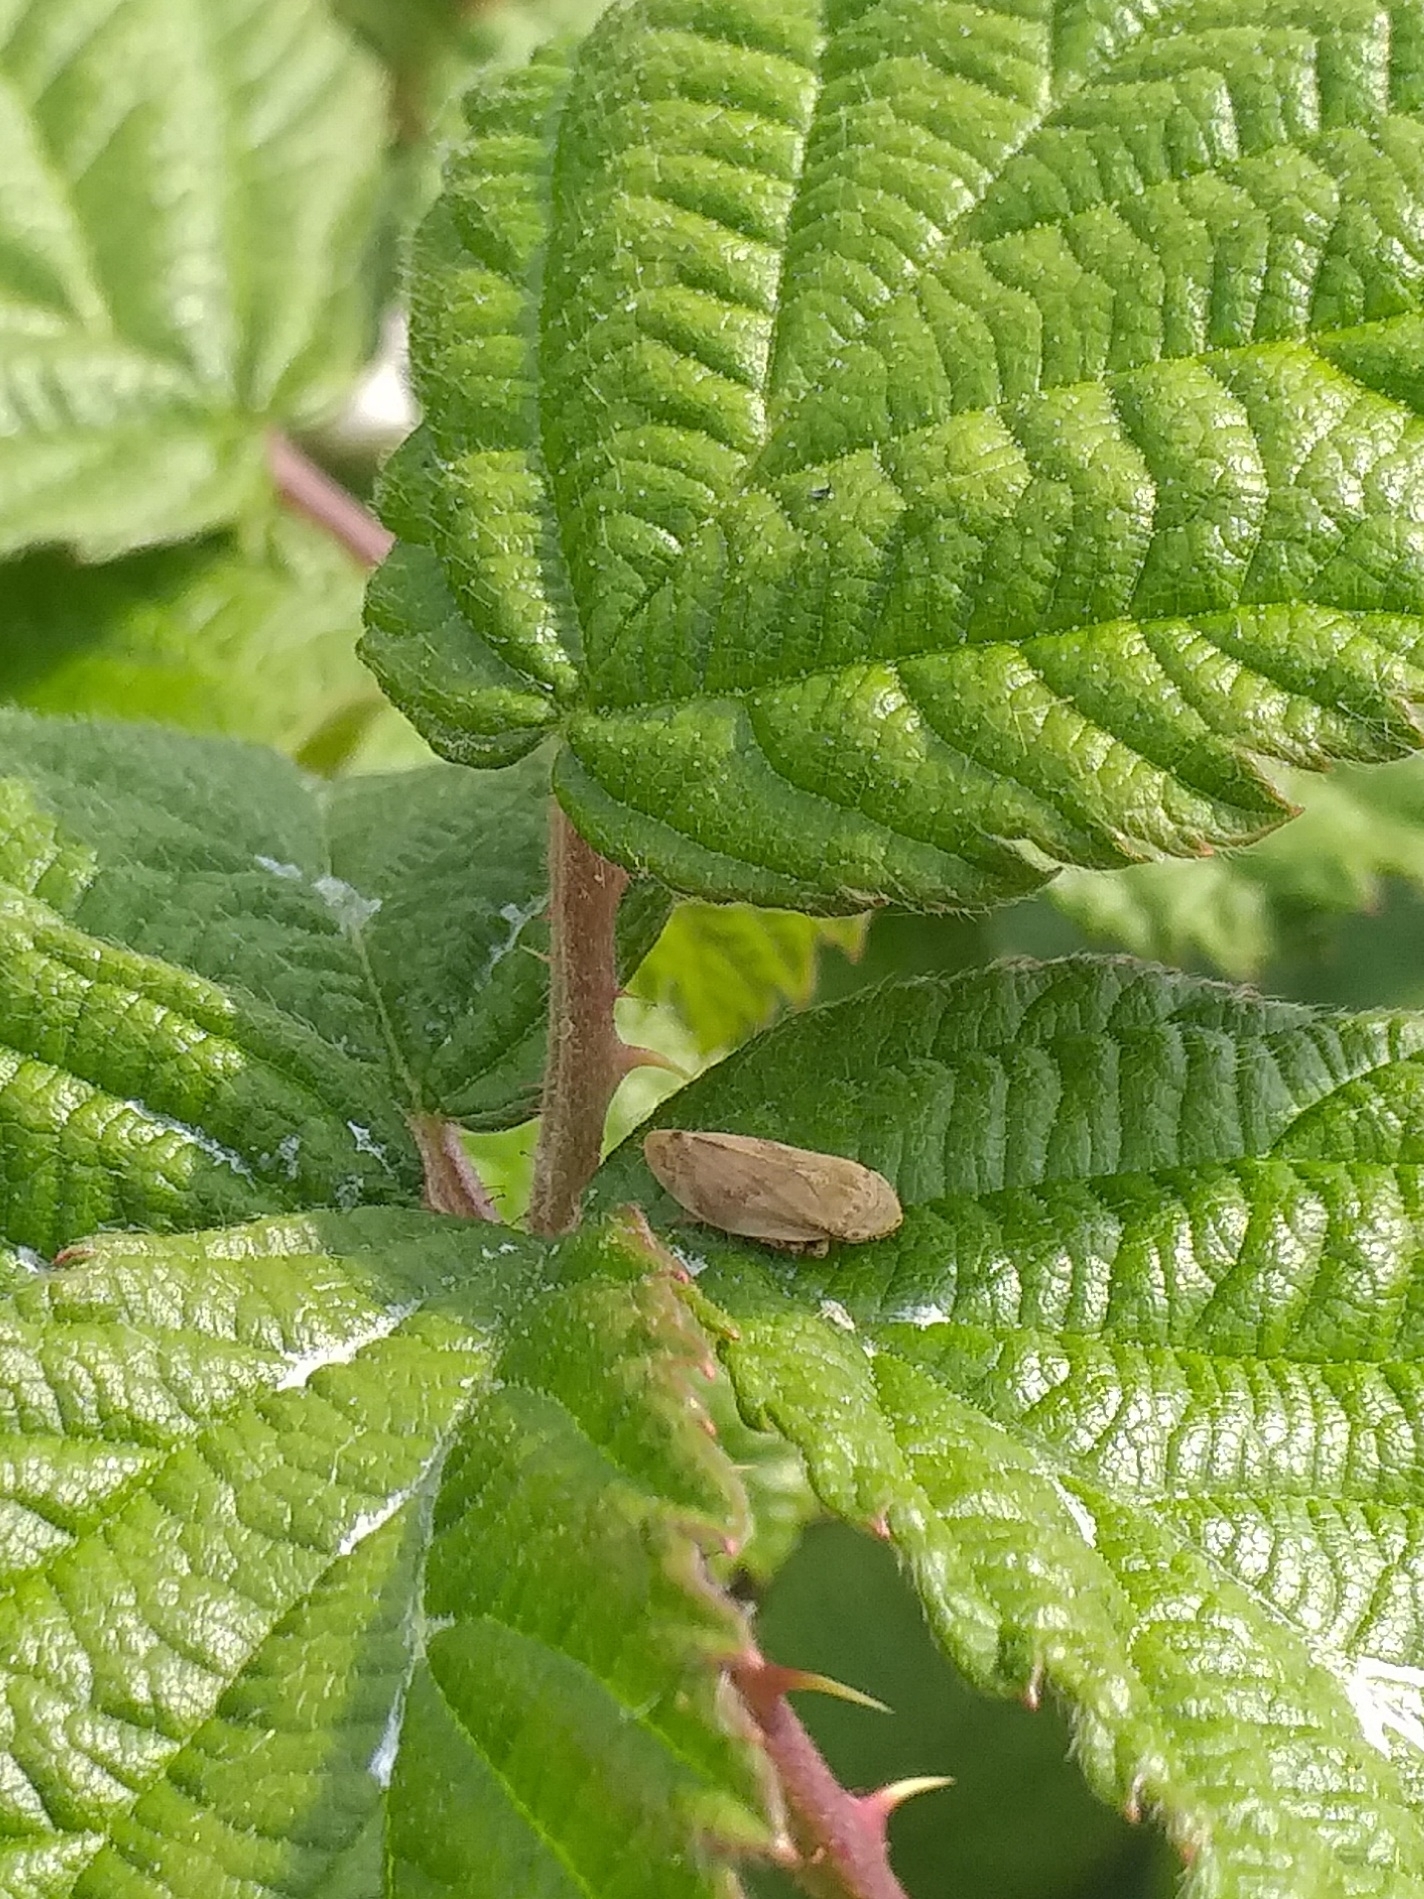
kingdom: Animalia
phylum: Arthropoda
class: Insecta
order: Hemiptera
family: Aphrophoridae
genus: Philaenus
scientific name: Philaenus spumarius
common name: Meadow spittlebug
